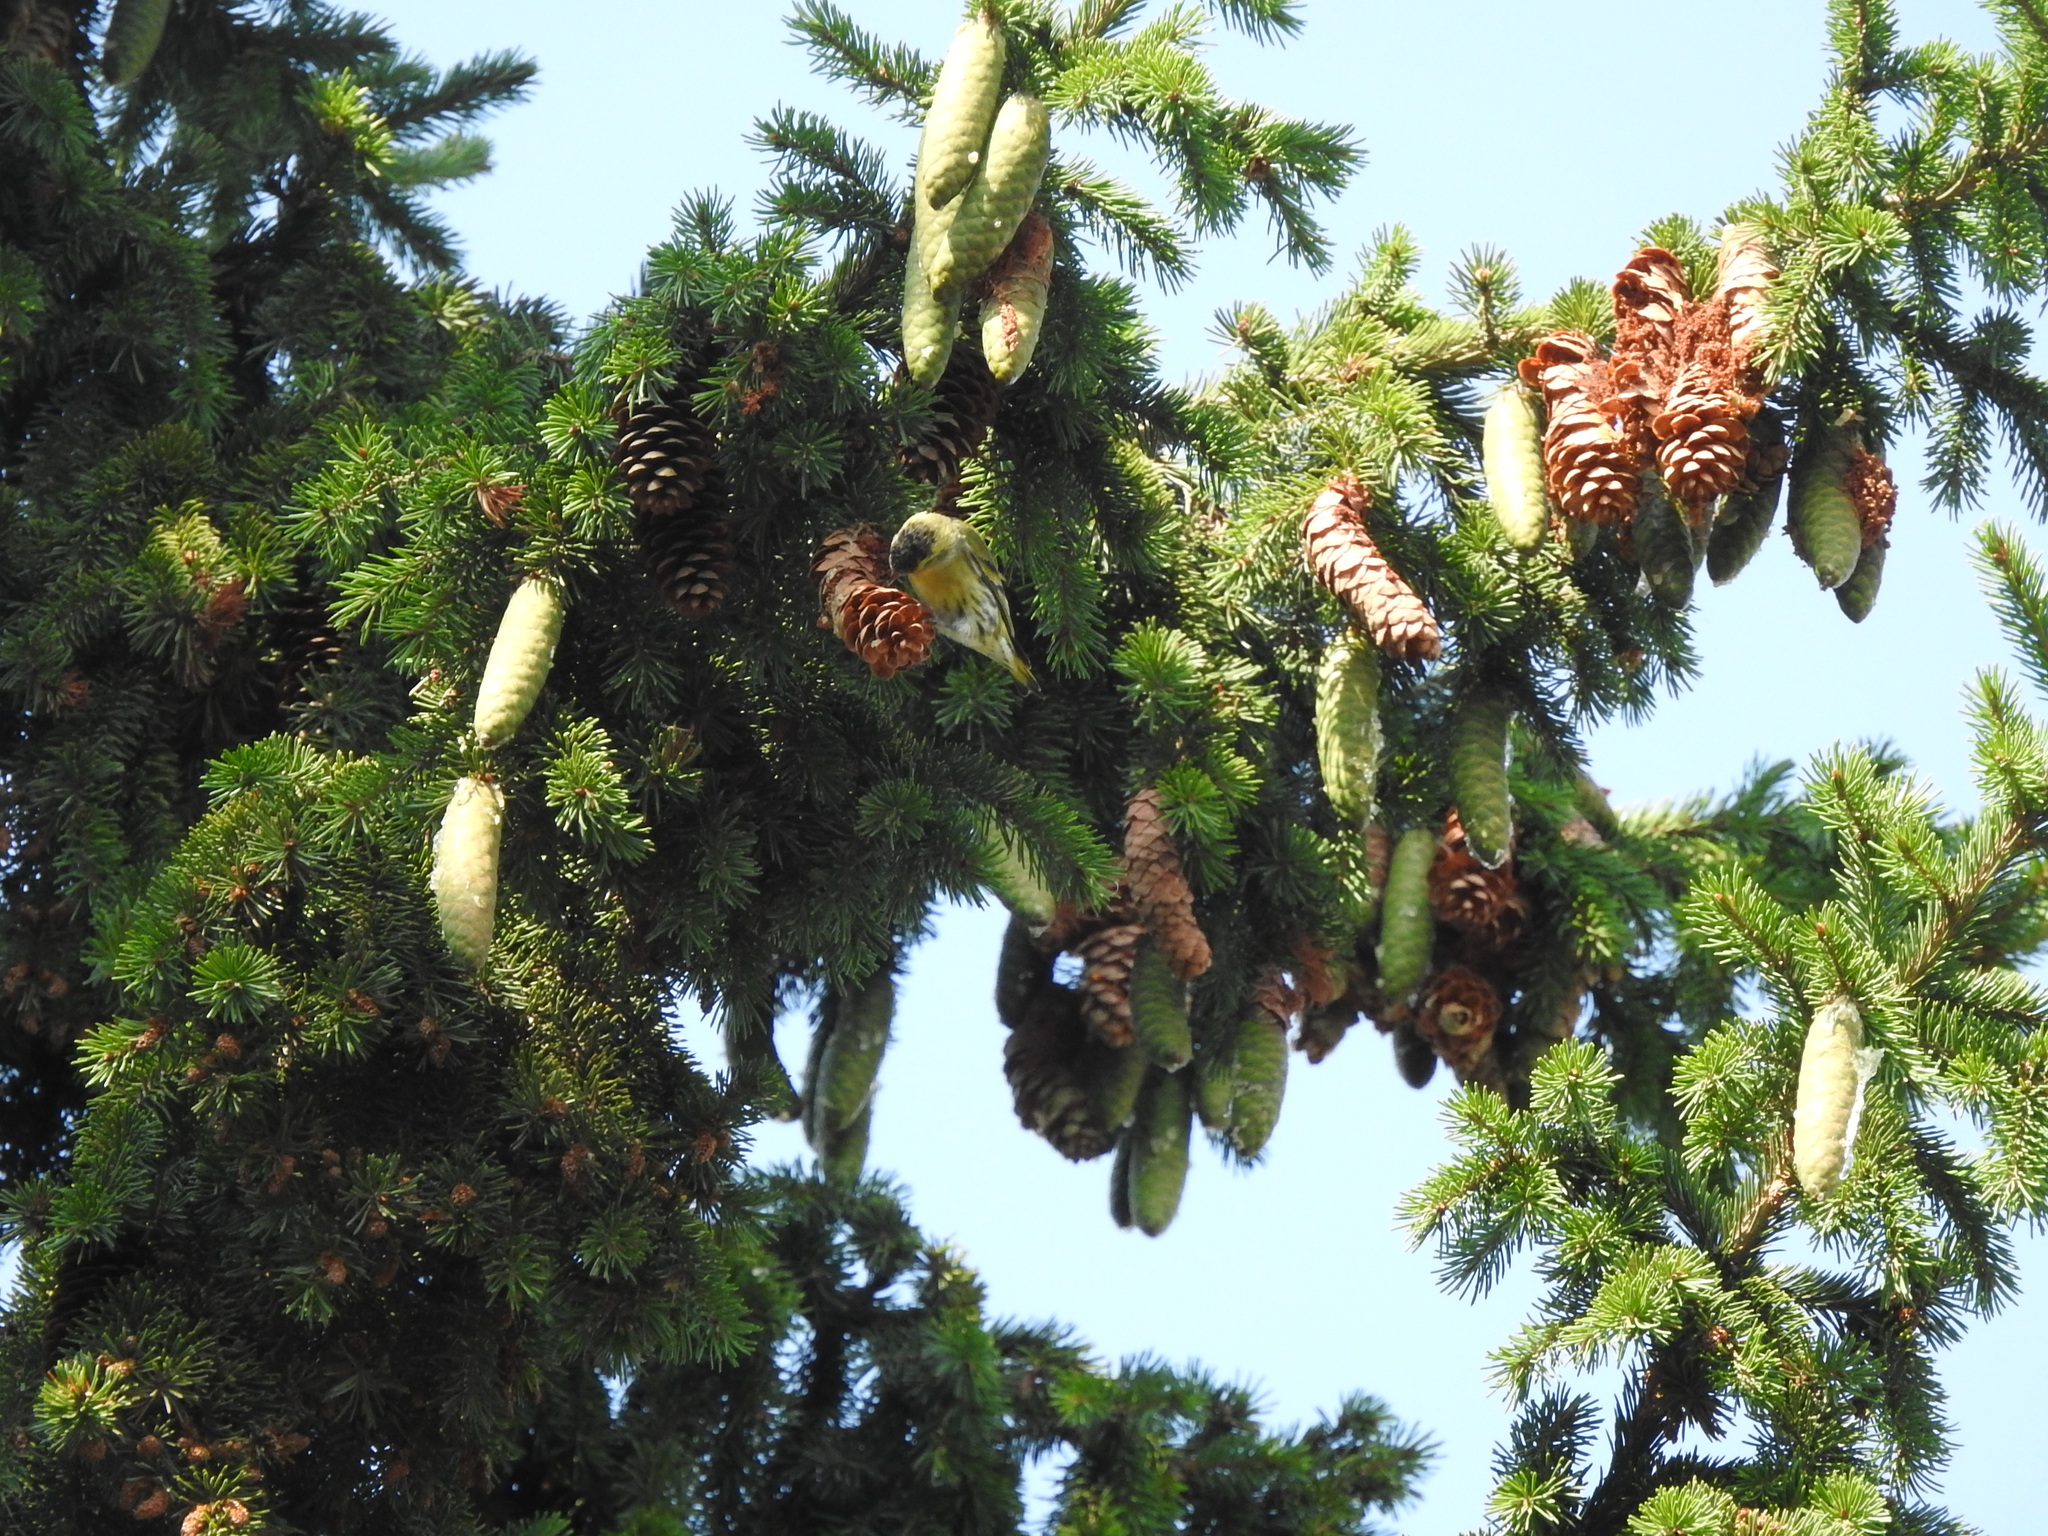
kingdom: Animalia
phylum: Chordata
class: Aves
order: Passeriformes
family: Fringillidae
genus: Spinus
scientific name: Spinus spinus
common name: Eurasian siskin
